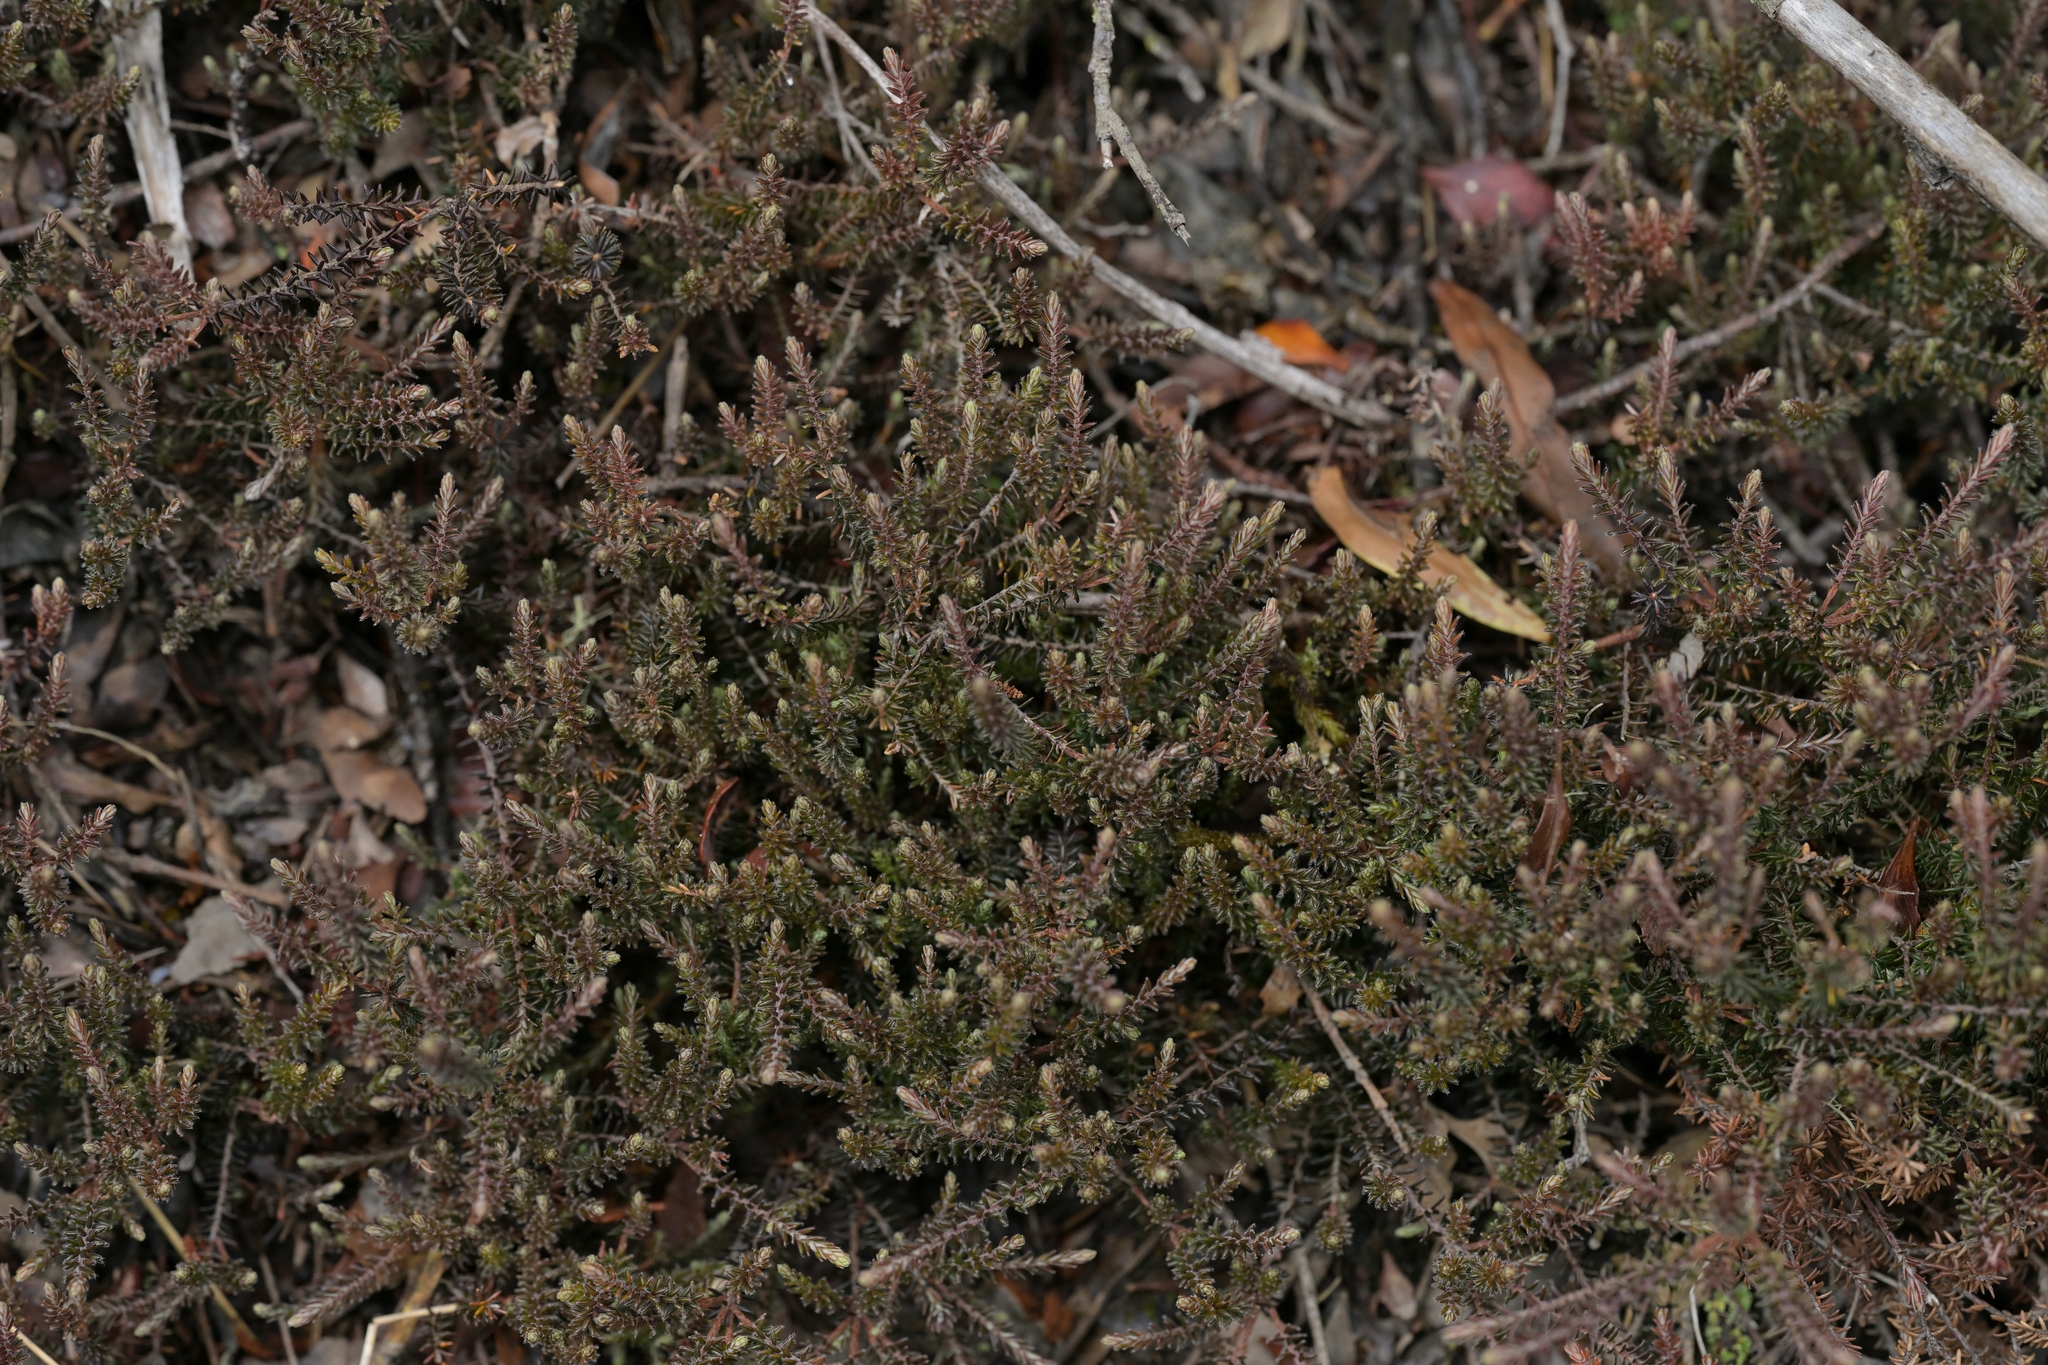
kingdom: Plantae
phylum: Tracheophyta
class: Magnoliopsida
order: Ericales
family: Ericaceae
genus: Androstoma
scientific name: Androstoma empetrifolia
